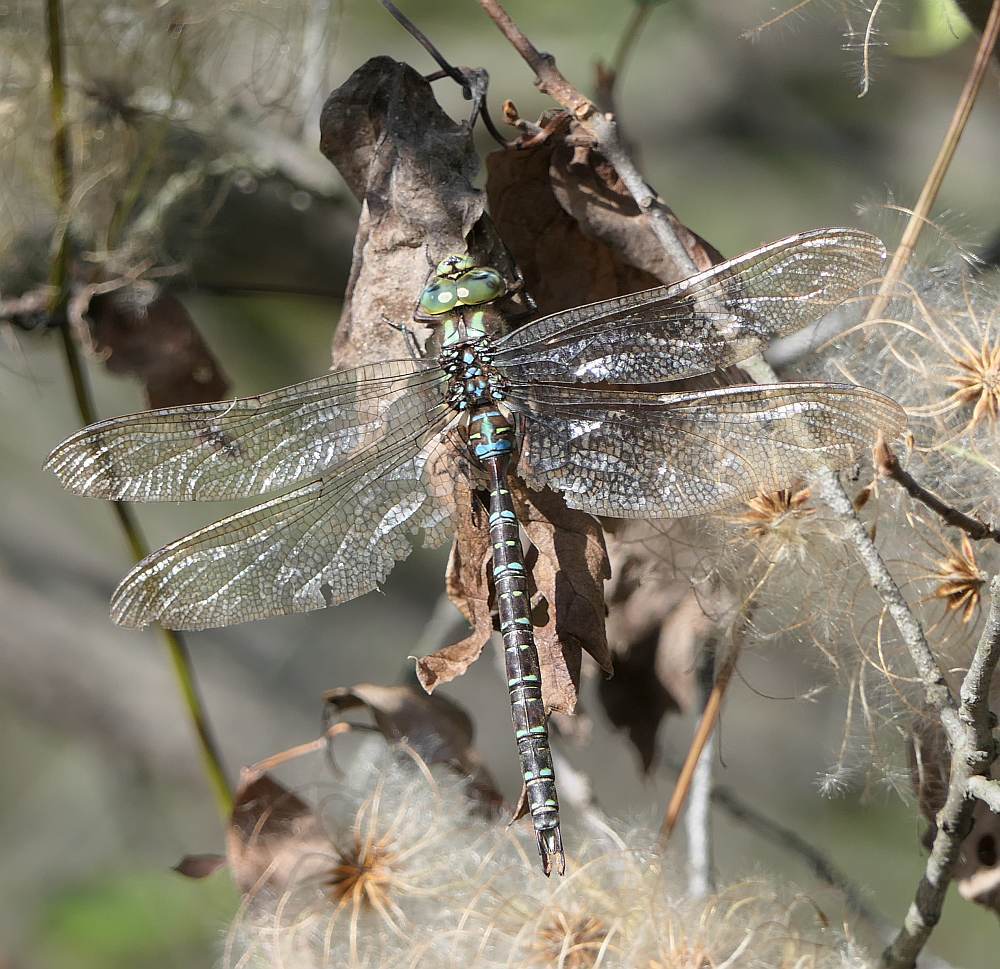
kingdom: Animalia
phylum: Arthropoda
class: Insecta
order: Odonata
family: Aeshnidae
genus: Aeshna
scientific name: Aeshna umbrosa
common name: Shadow darner
